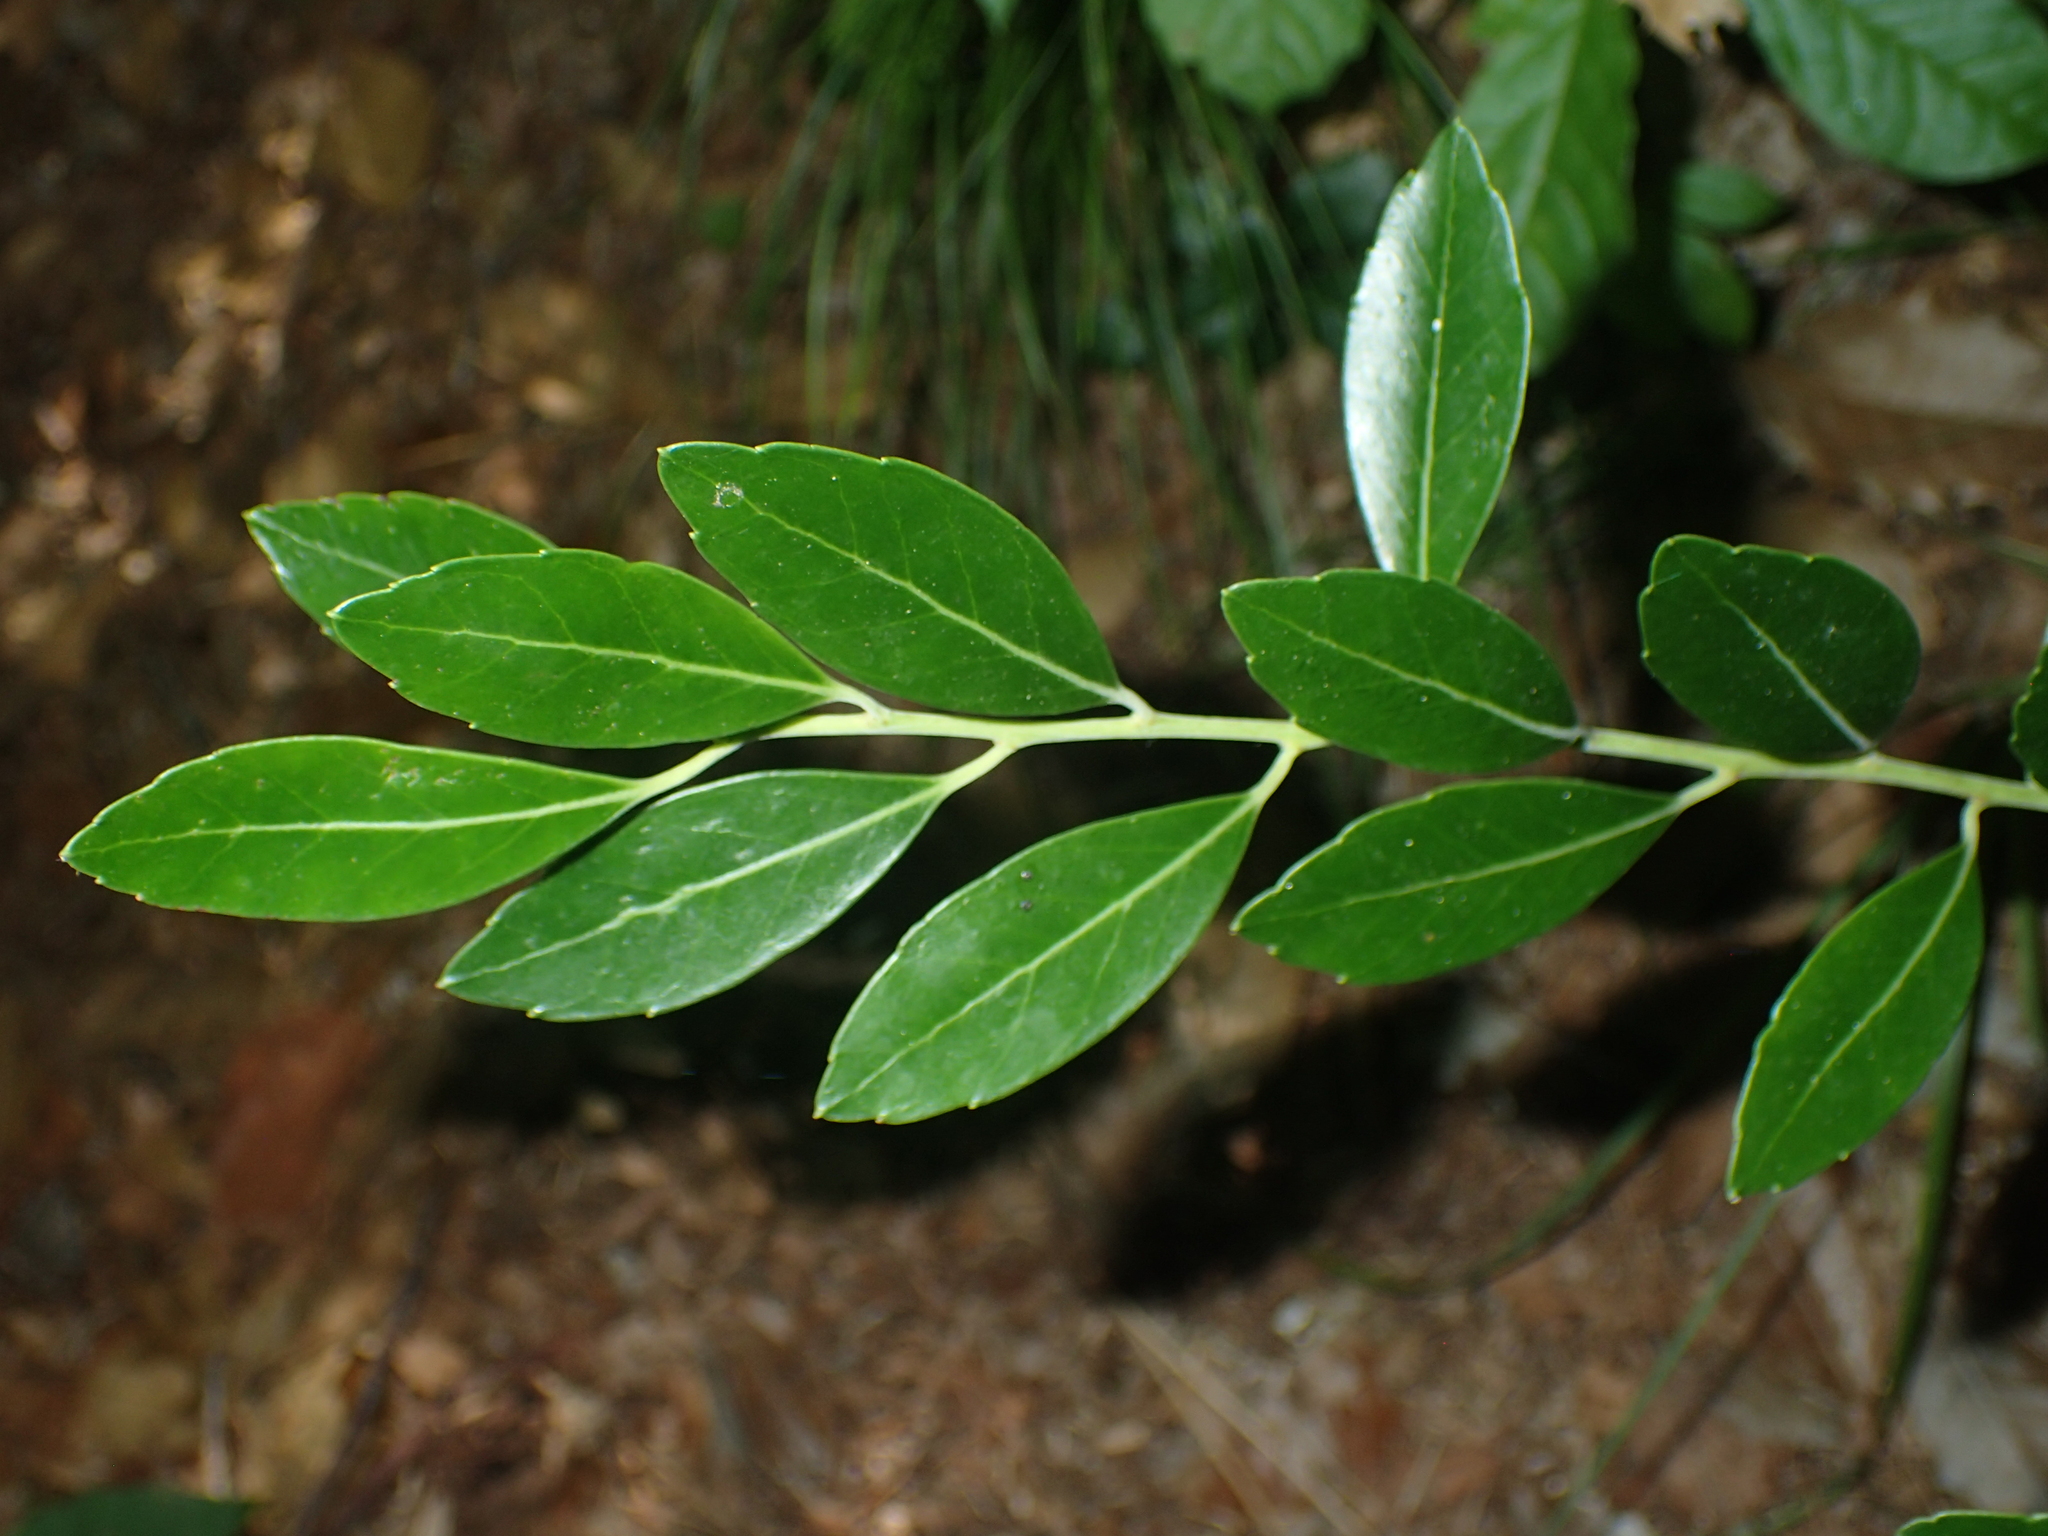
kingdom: Plantae
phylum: Tracheophyta
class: Magnoliopsida
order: Aquifoliales
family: Aquifoliaceae
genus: Ilex
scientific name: Ilex glabra
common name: Bitter gallberry
